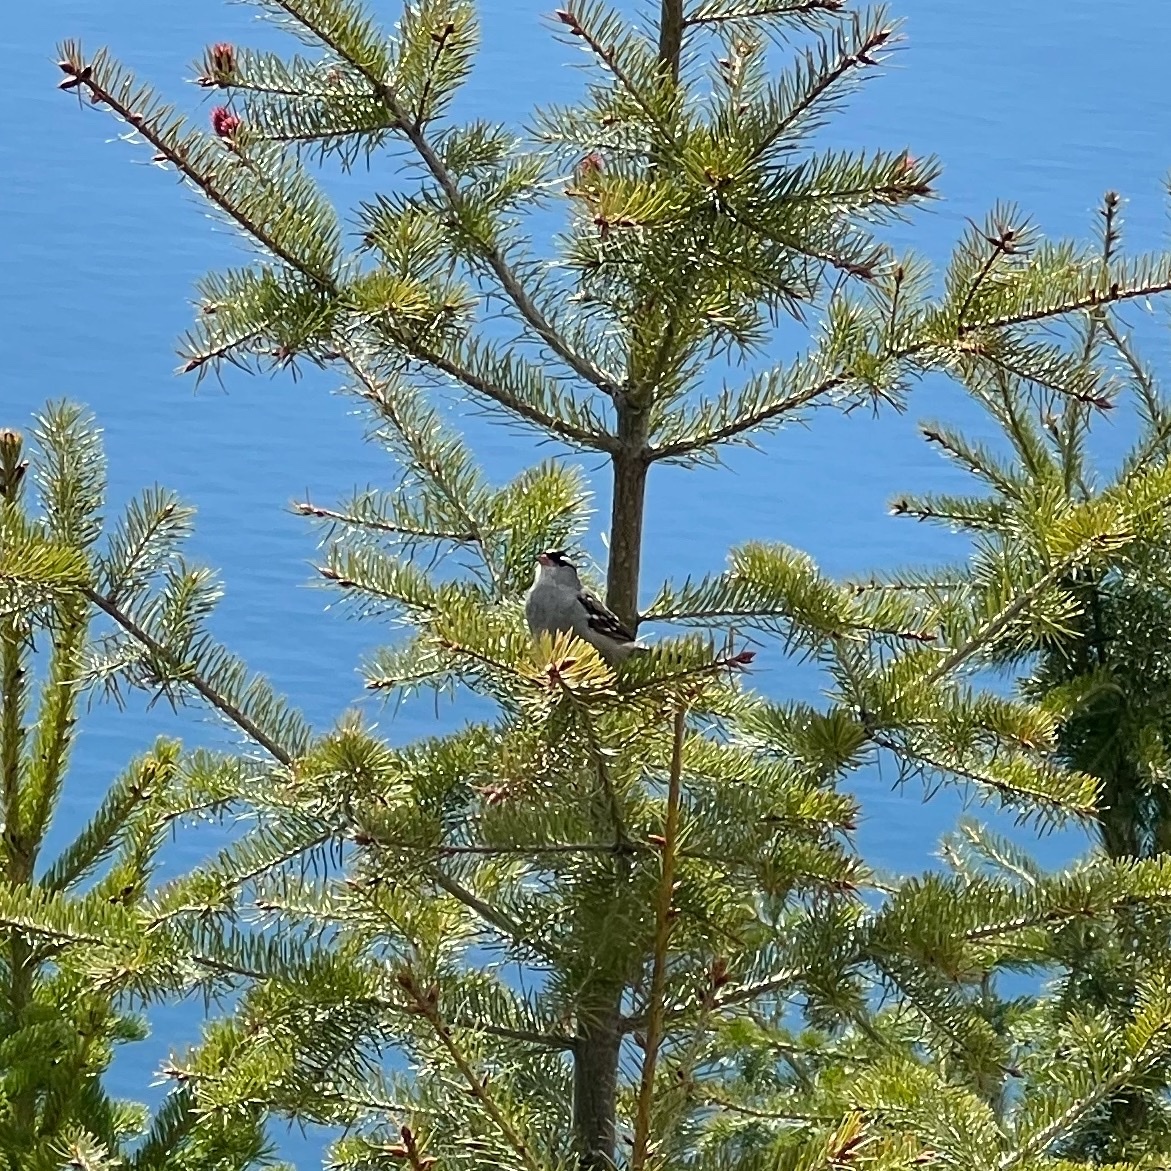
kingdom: Animalia
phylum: Chordata
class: Aves
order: Passeriformes
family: Passerellidae
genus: Zonotrichia
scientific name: Zonotrichia leucophrys
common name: White-crowned sparrow
